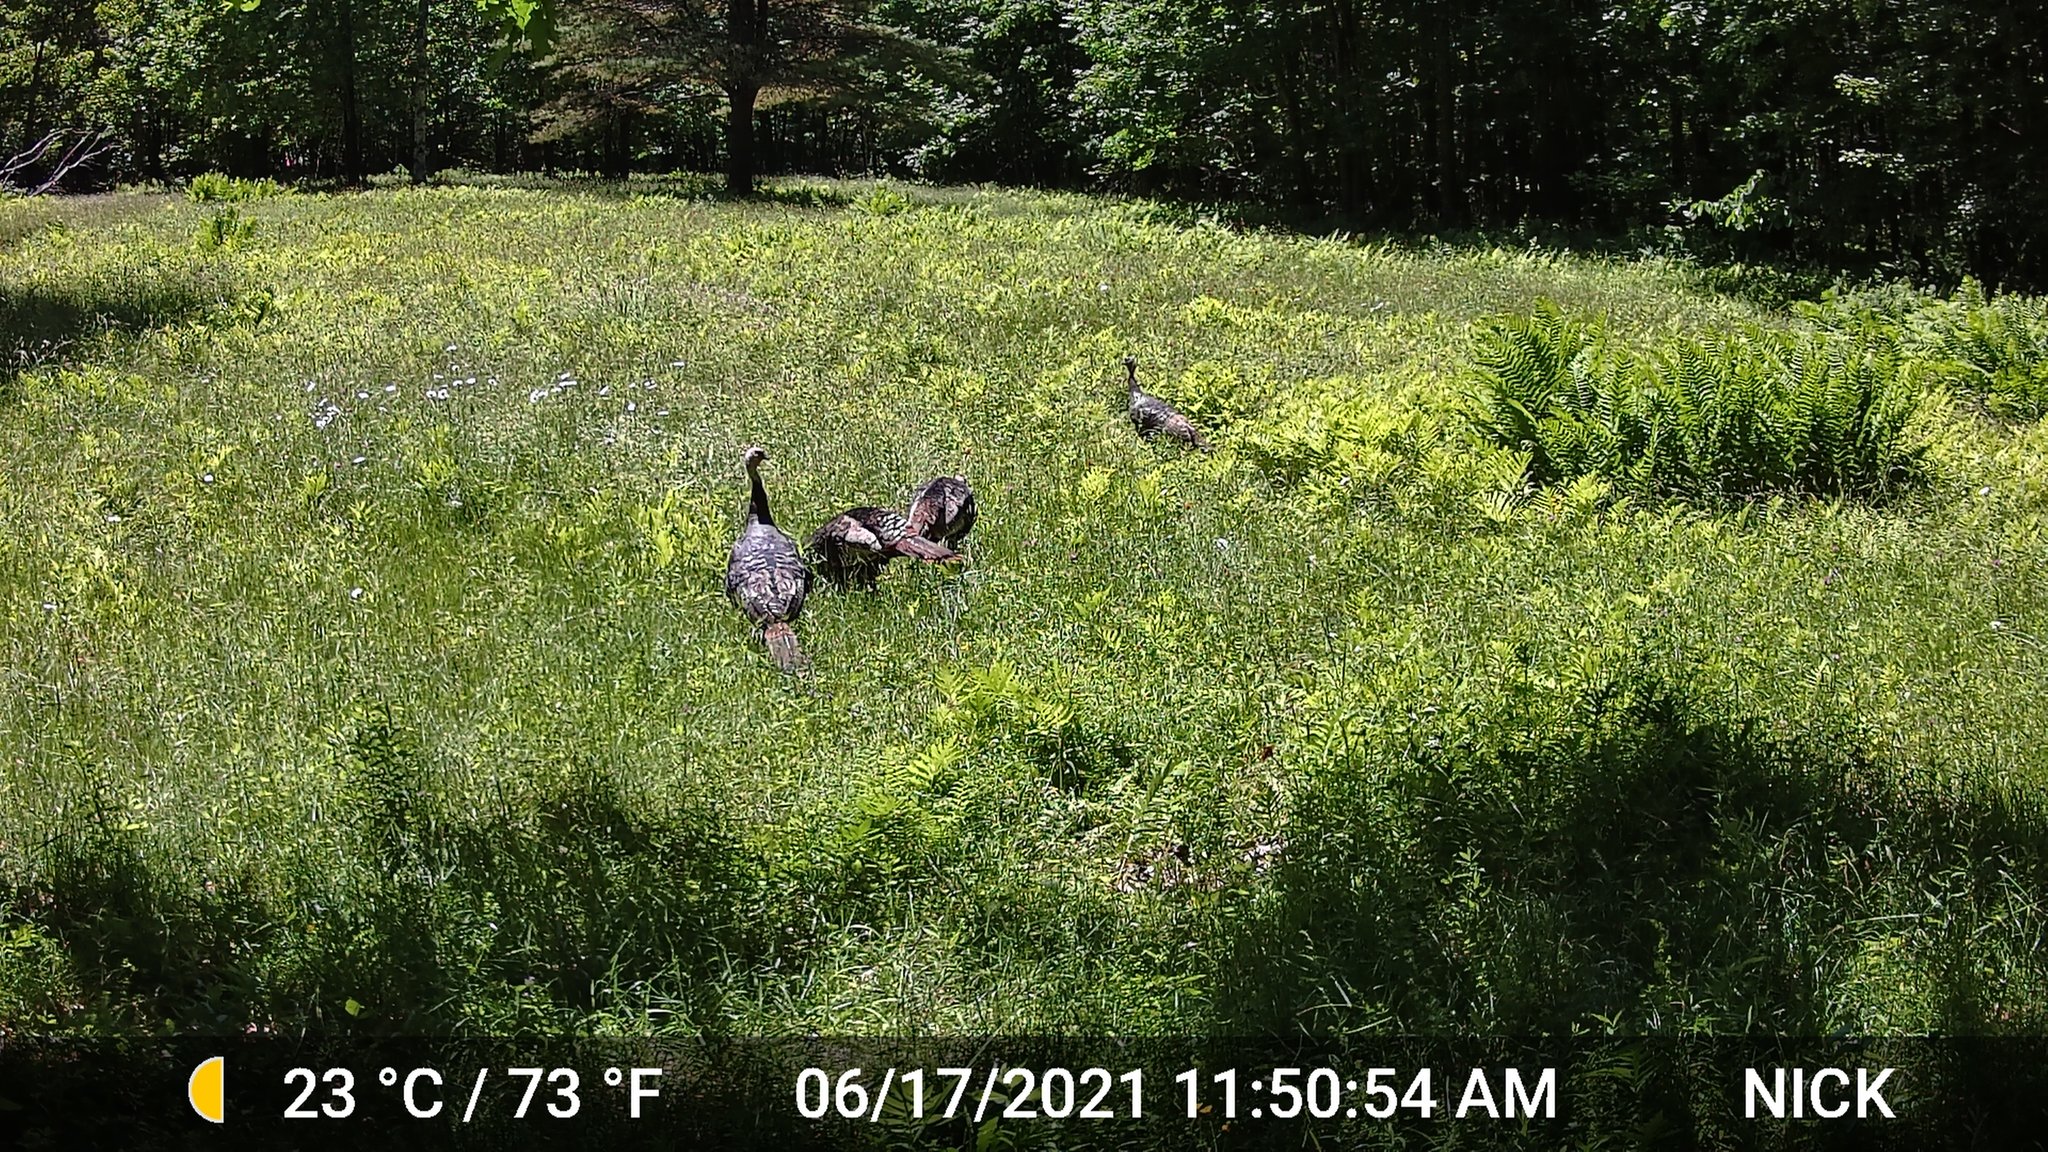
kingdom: Animalia
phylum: Chordata
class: Aves
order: Galliformes
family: Phasianidae
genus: Meleagris
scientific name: Meleagris gallopavo
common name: Wild turkey
